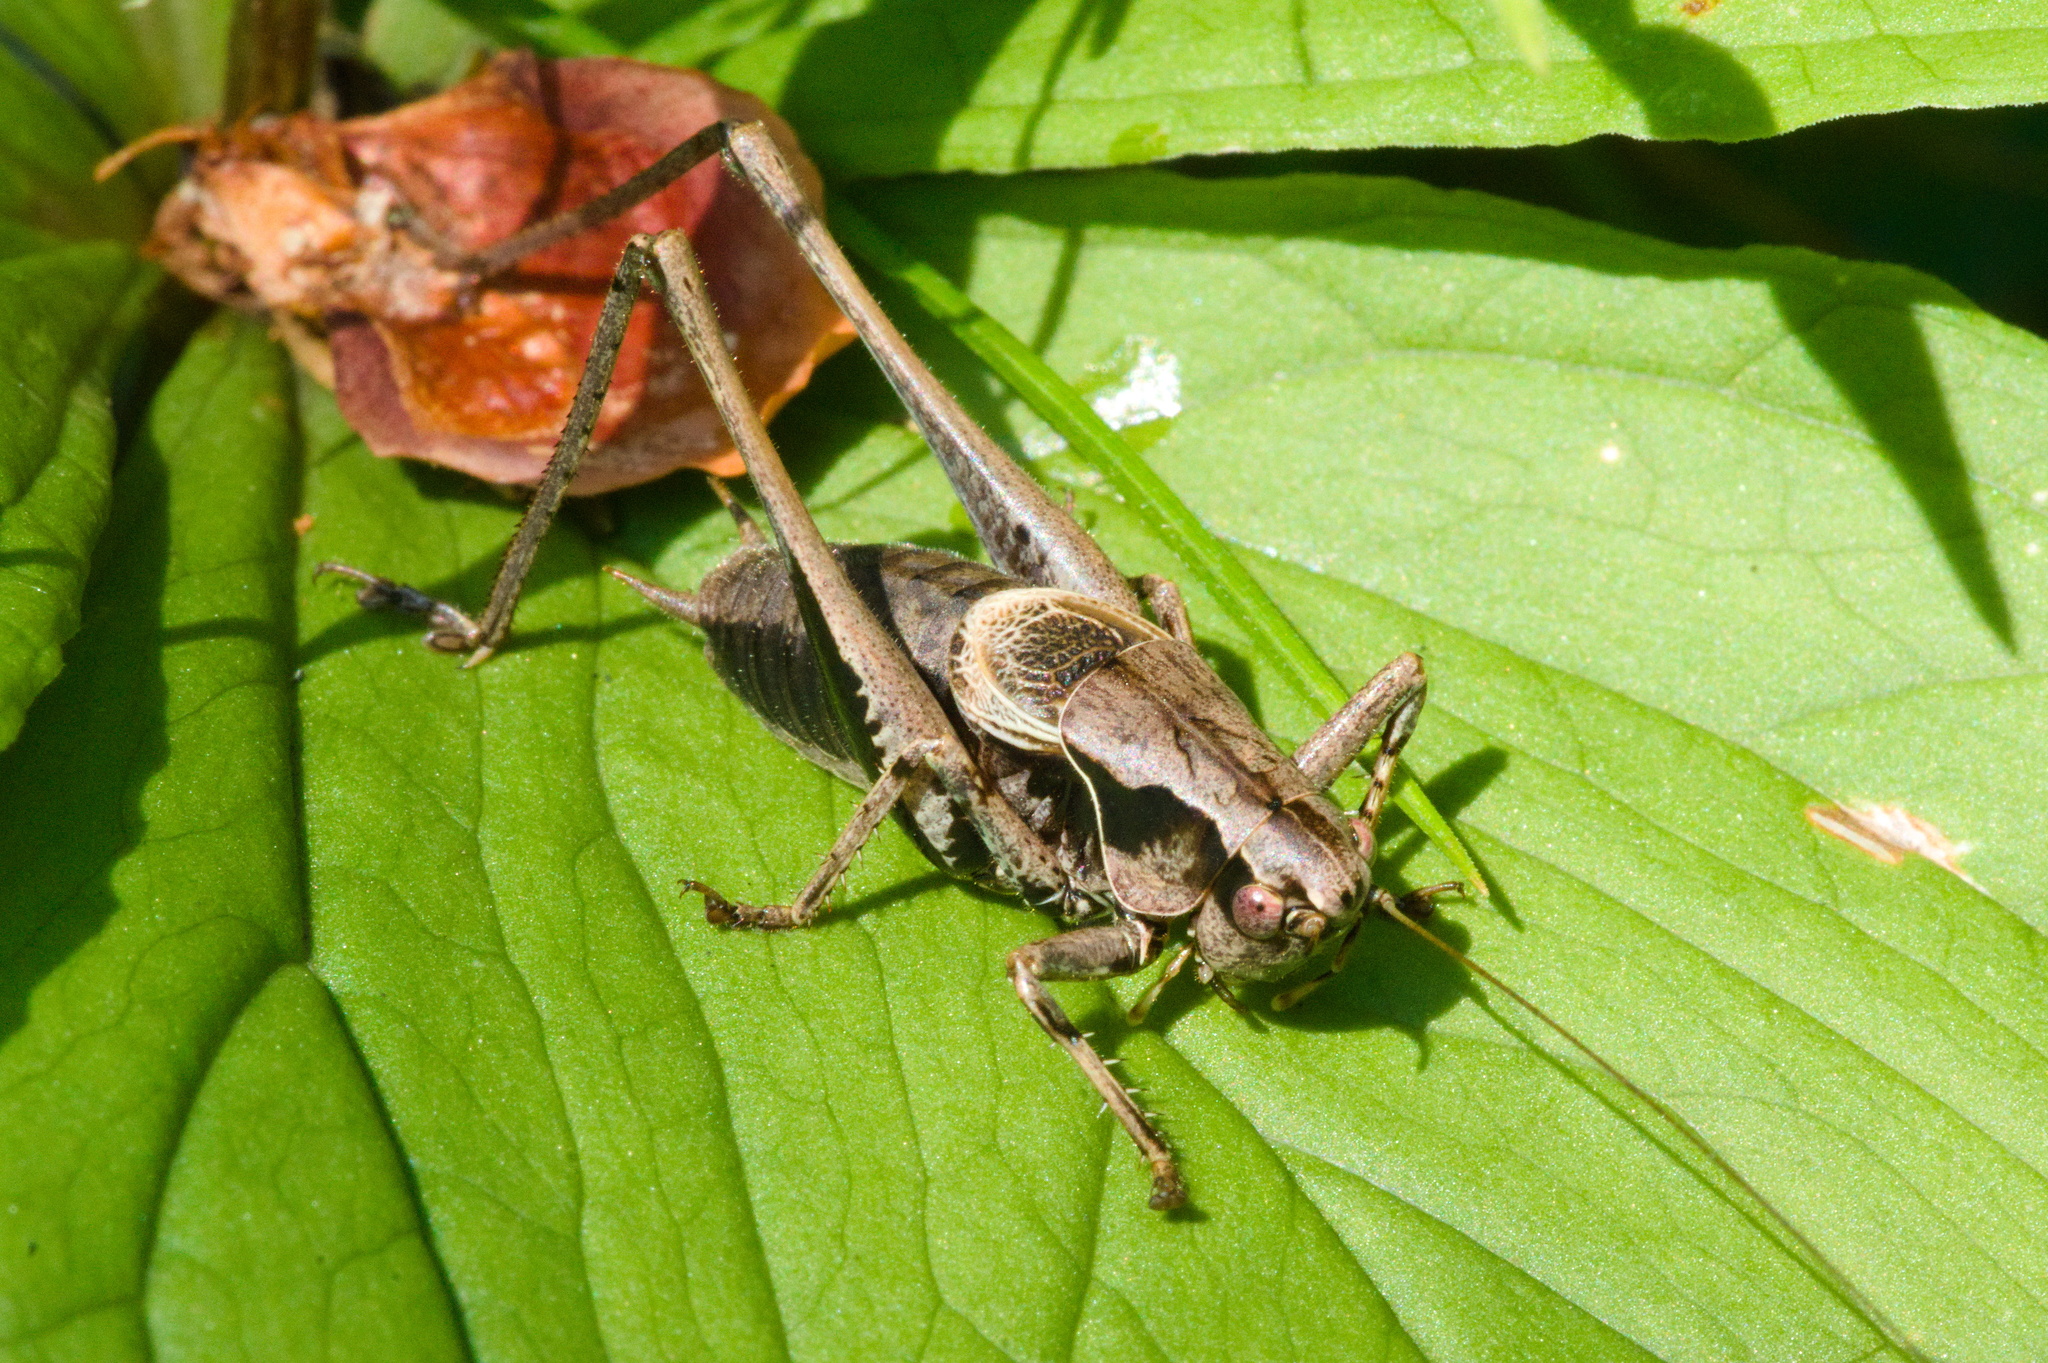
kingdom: Animalia
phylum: Arthropoda
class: Insecta
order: Orthoptera
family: Tettigoniidae
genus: Pholidoptera
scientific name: Pholidoptera griseoaptera
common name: Dark bush-cricket
